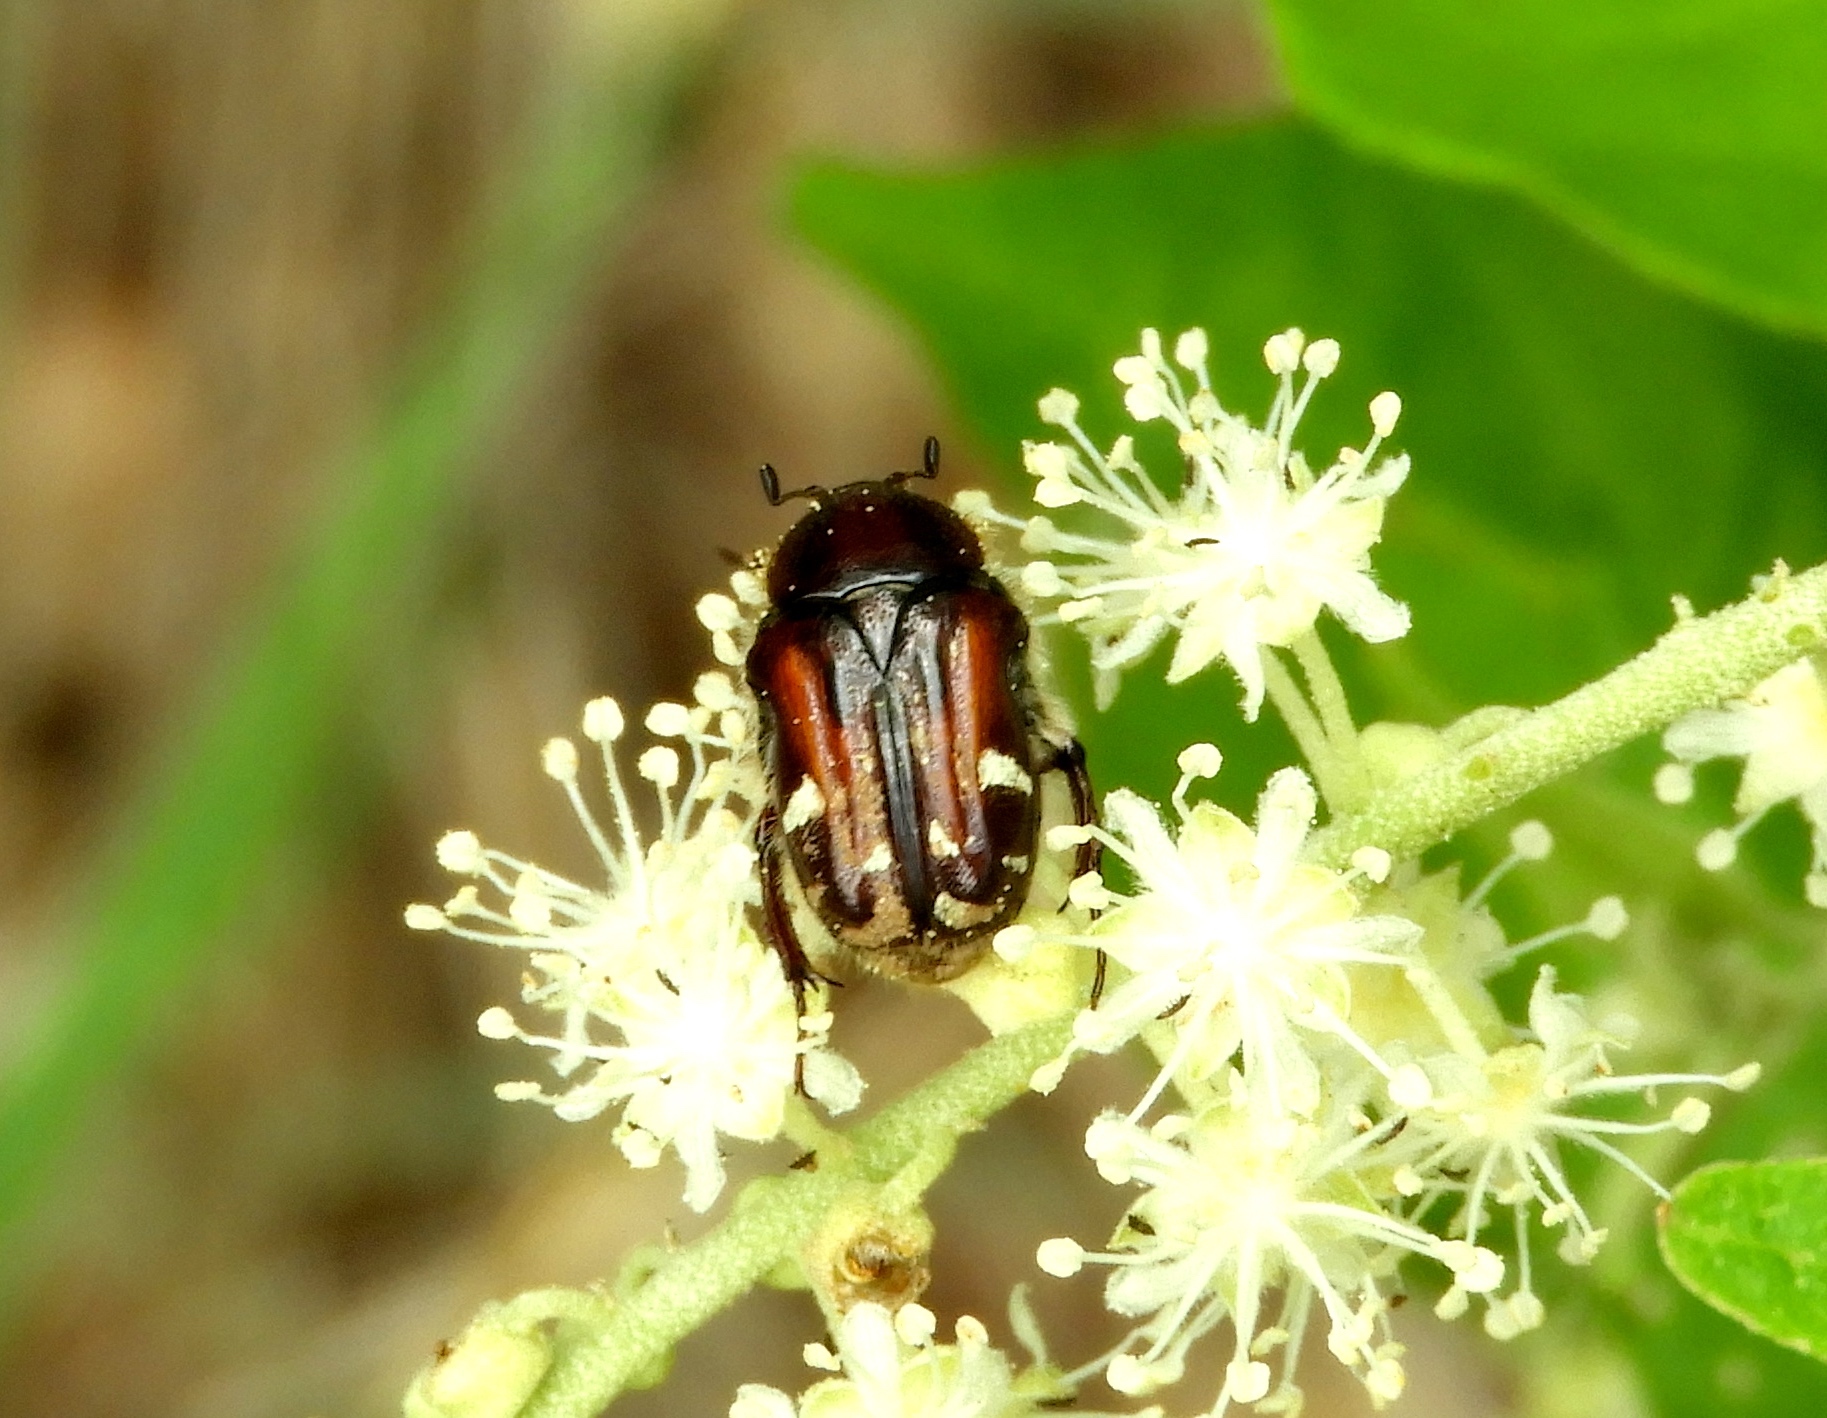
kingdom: Animalia
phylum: Arthropoda
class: Insecta
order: Coleoptera
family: Scarabaeidae
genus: Euphoria
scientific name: Euphoria pulchella
